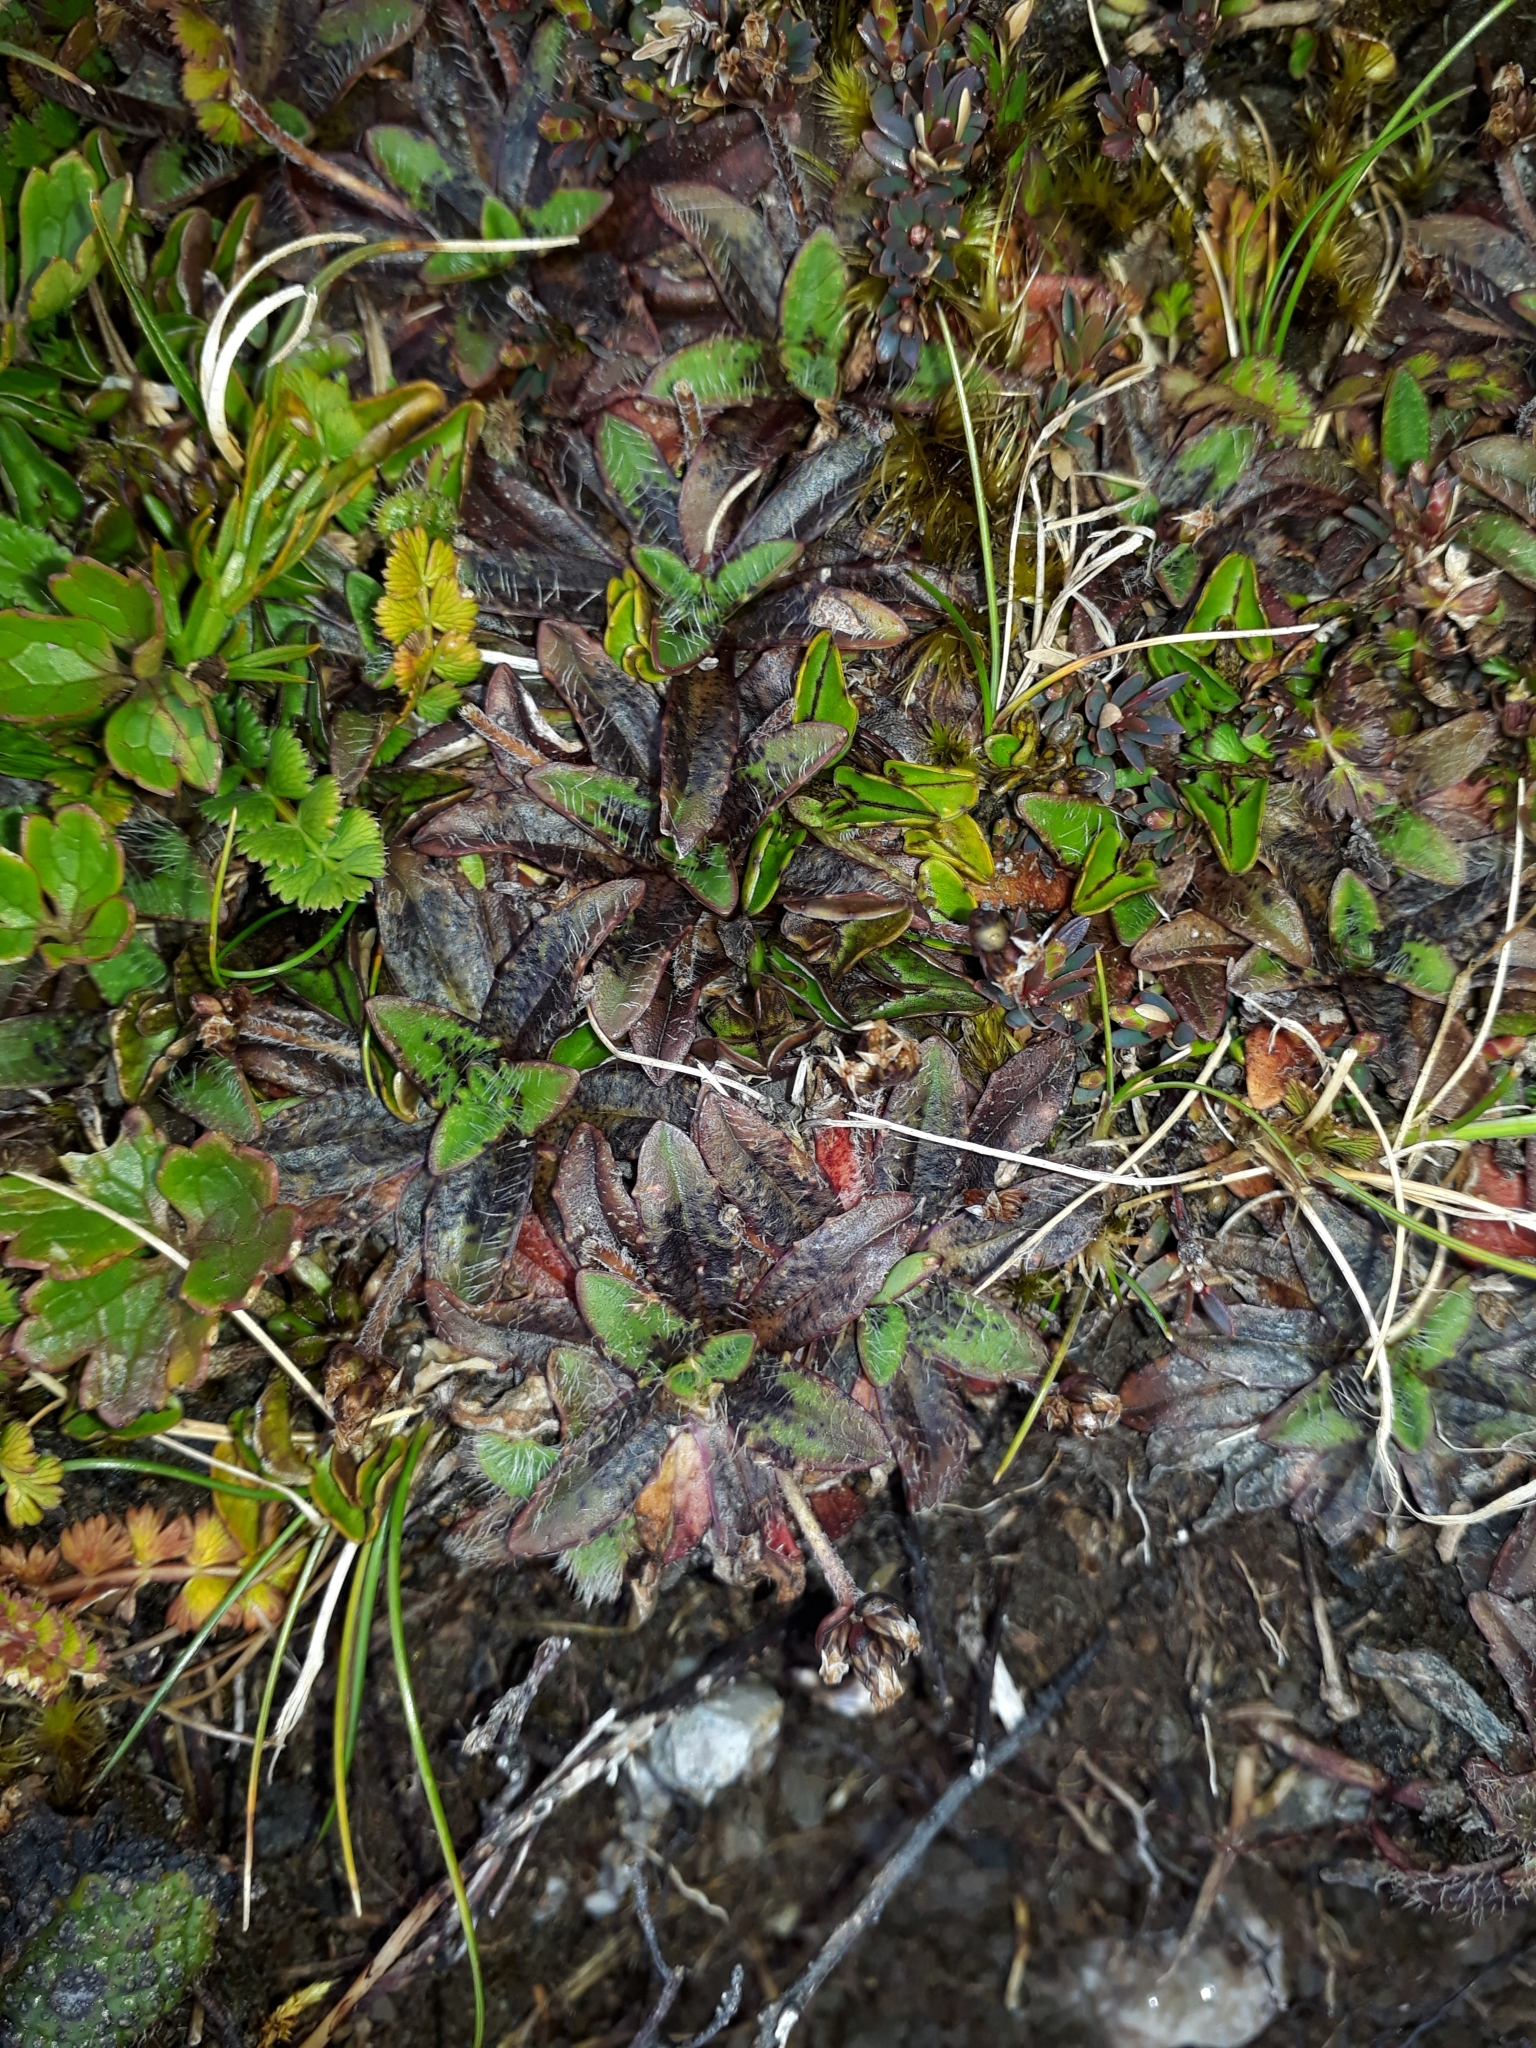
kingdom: Plantae
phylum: Tracheophyta
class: Magnoliopsida
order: Lamiales
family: Plantaginaceae
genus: Plantago
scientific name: Plantago lanigera
